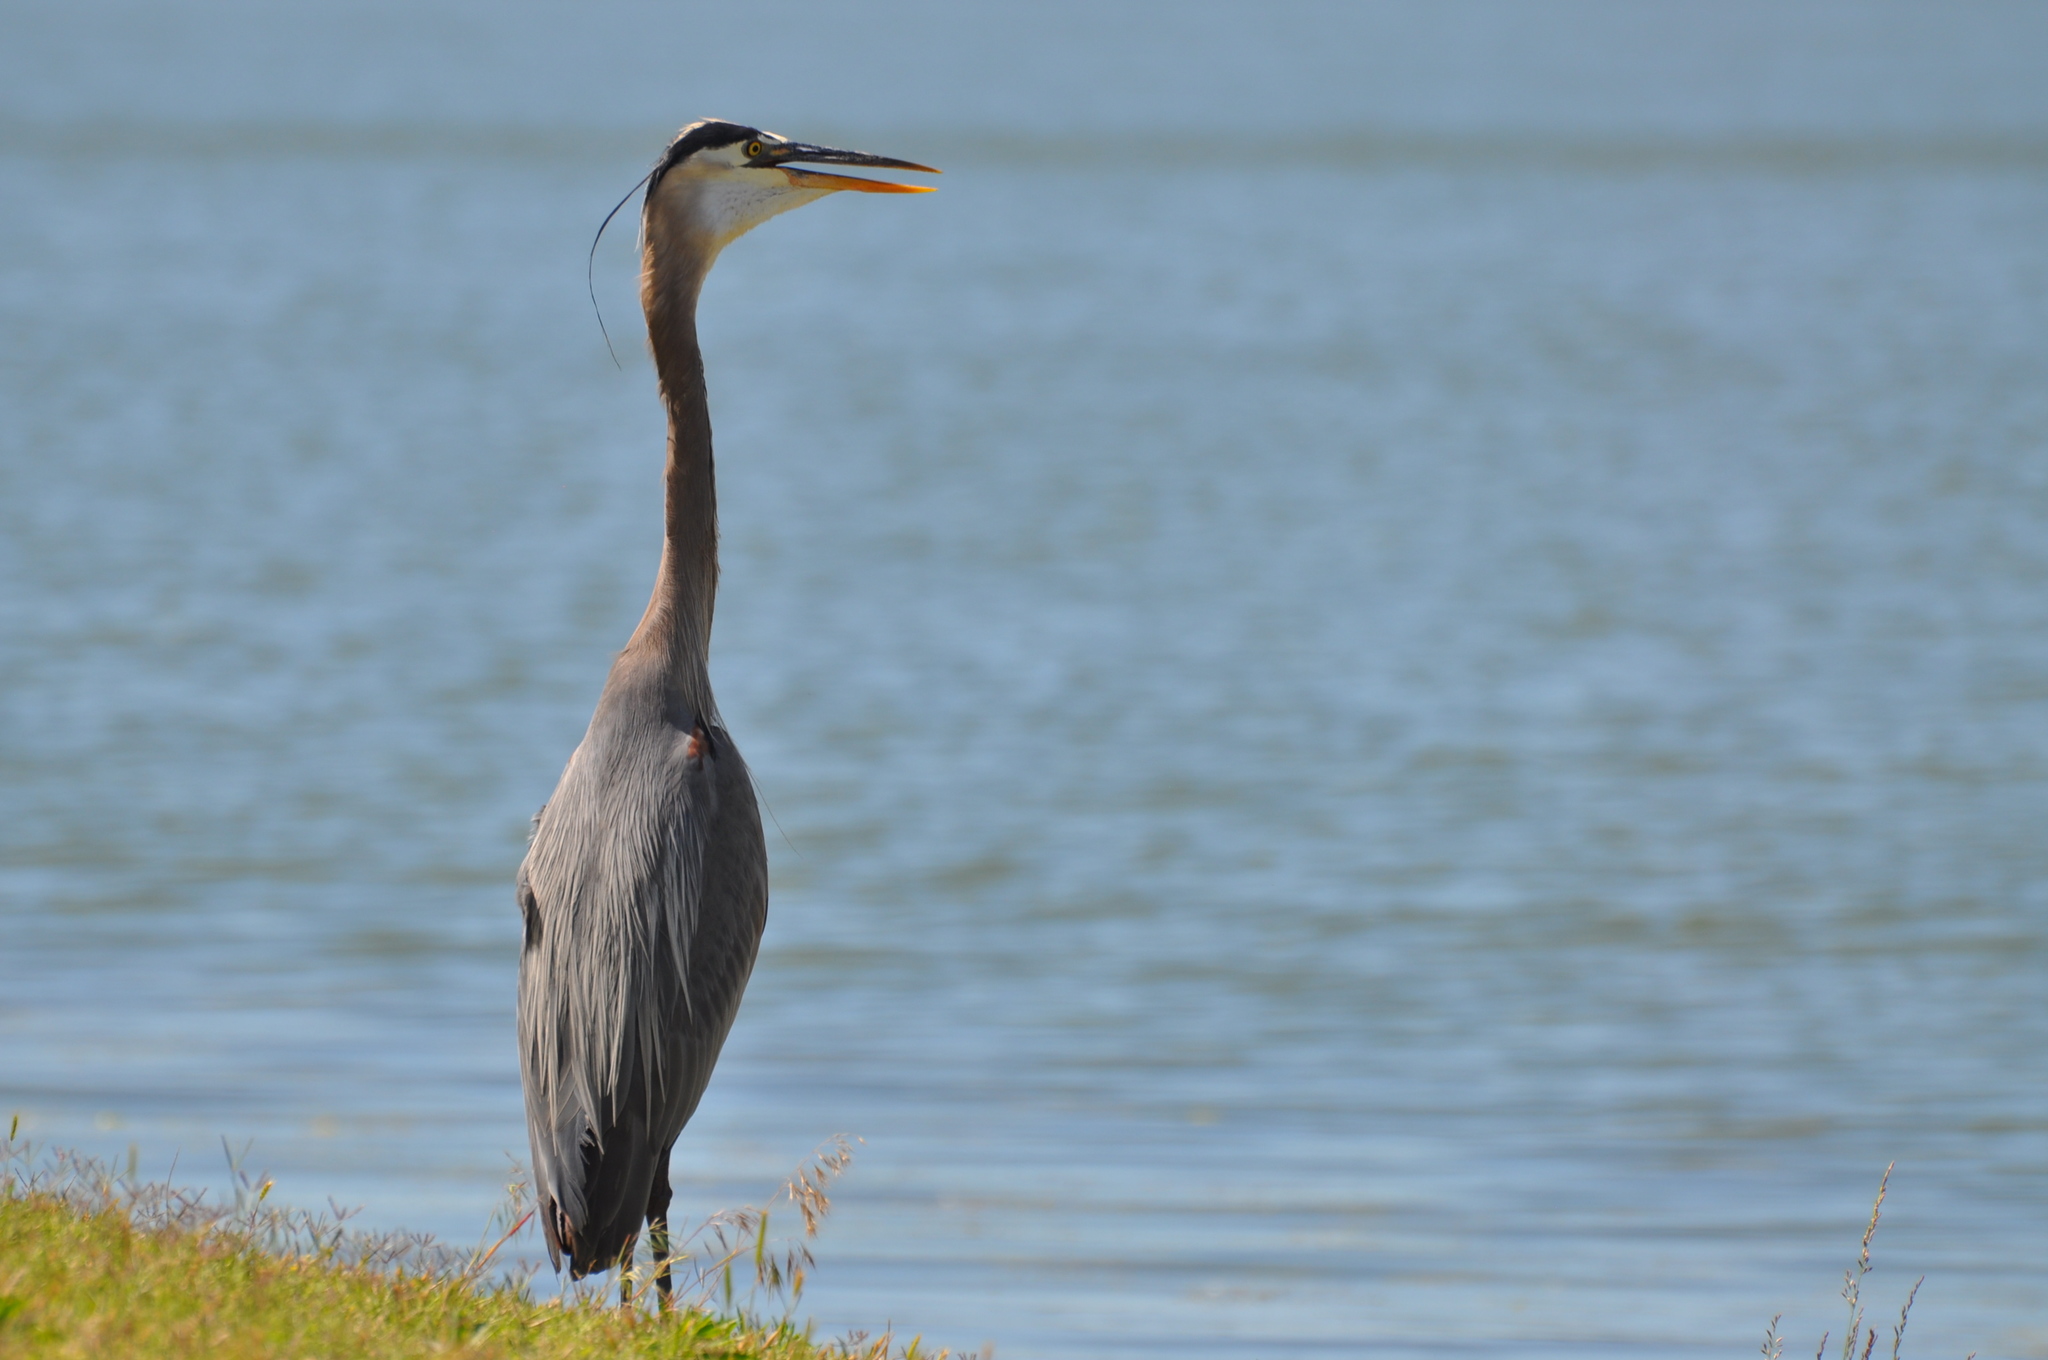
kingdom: Animalia
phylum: Chordata
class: Aves
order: Pelecaniformes
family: Ardeidae
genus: Ardea
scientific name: Ardea herodias
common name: Great blue heron
